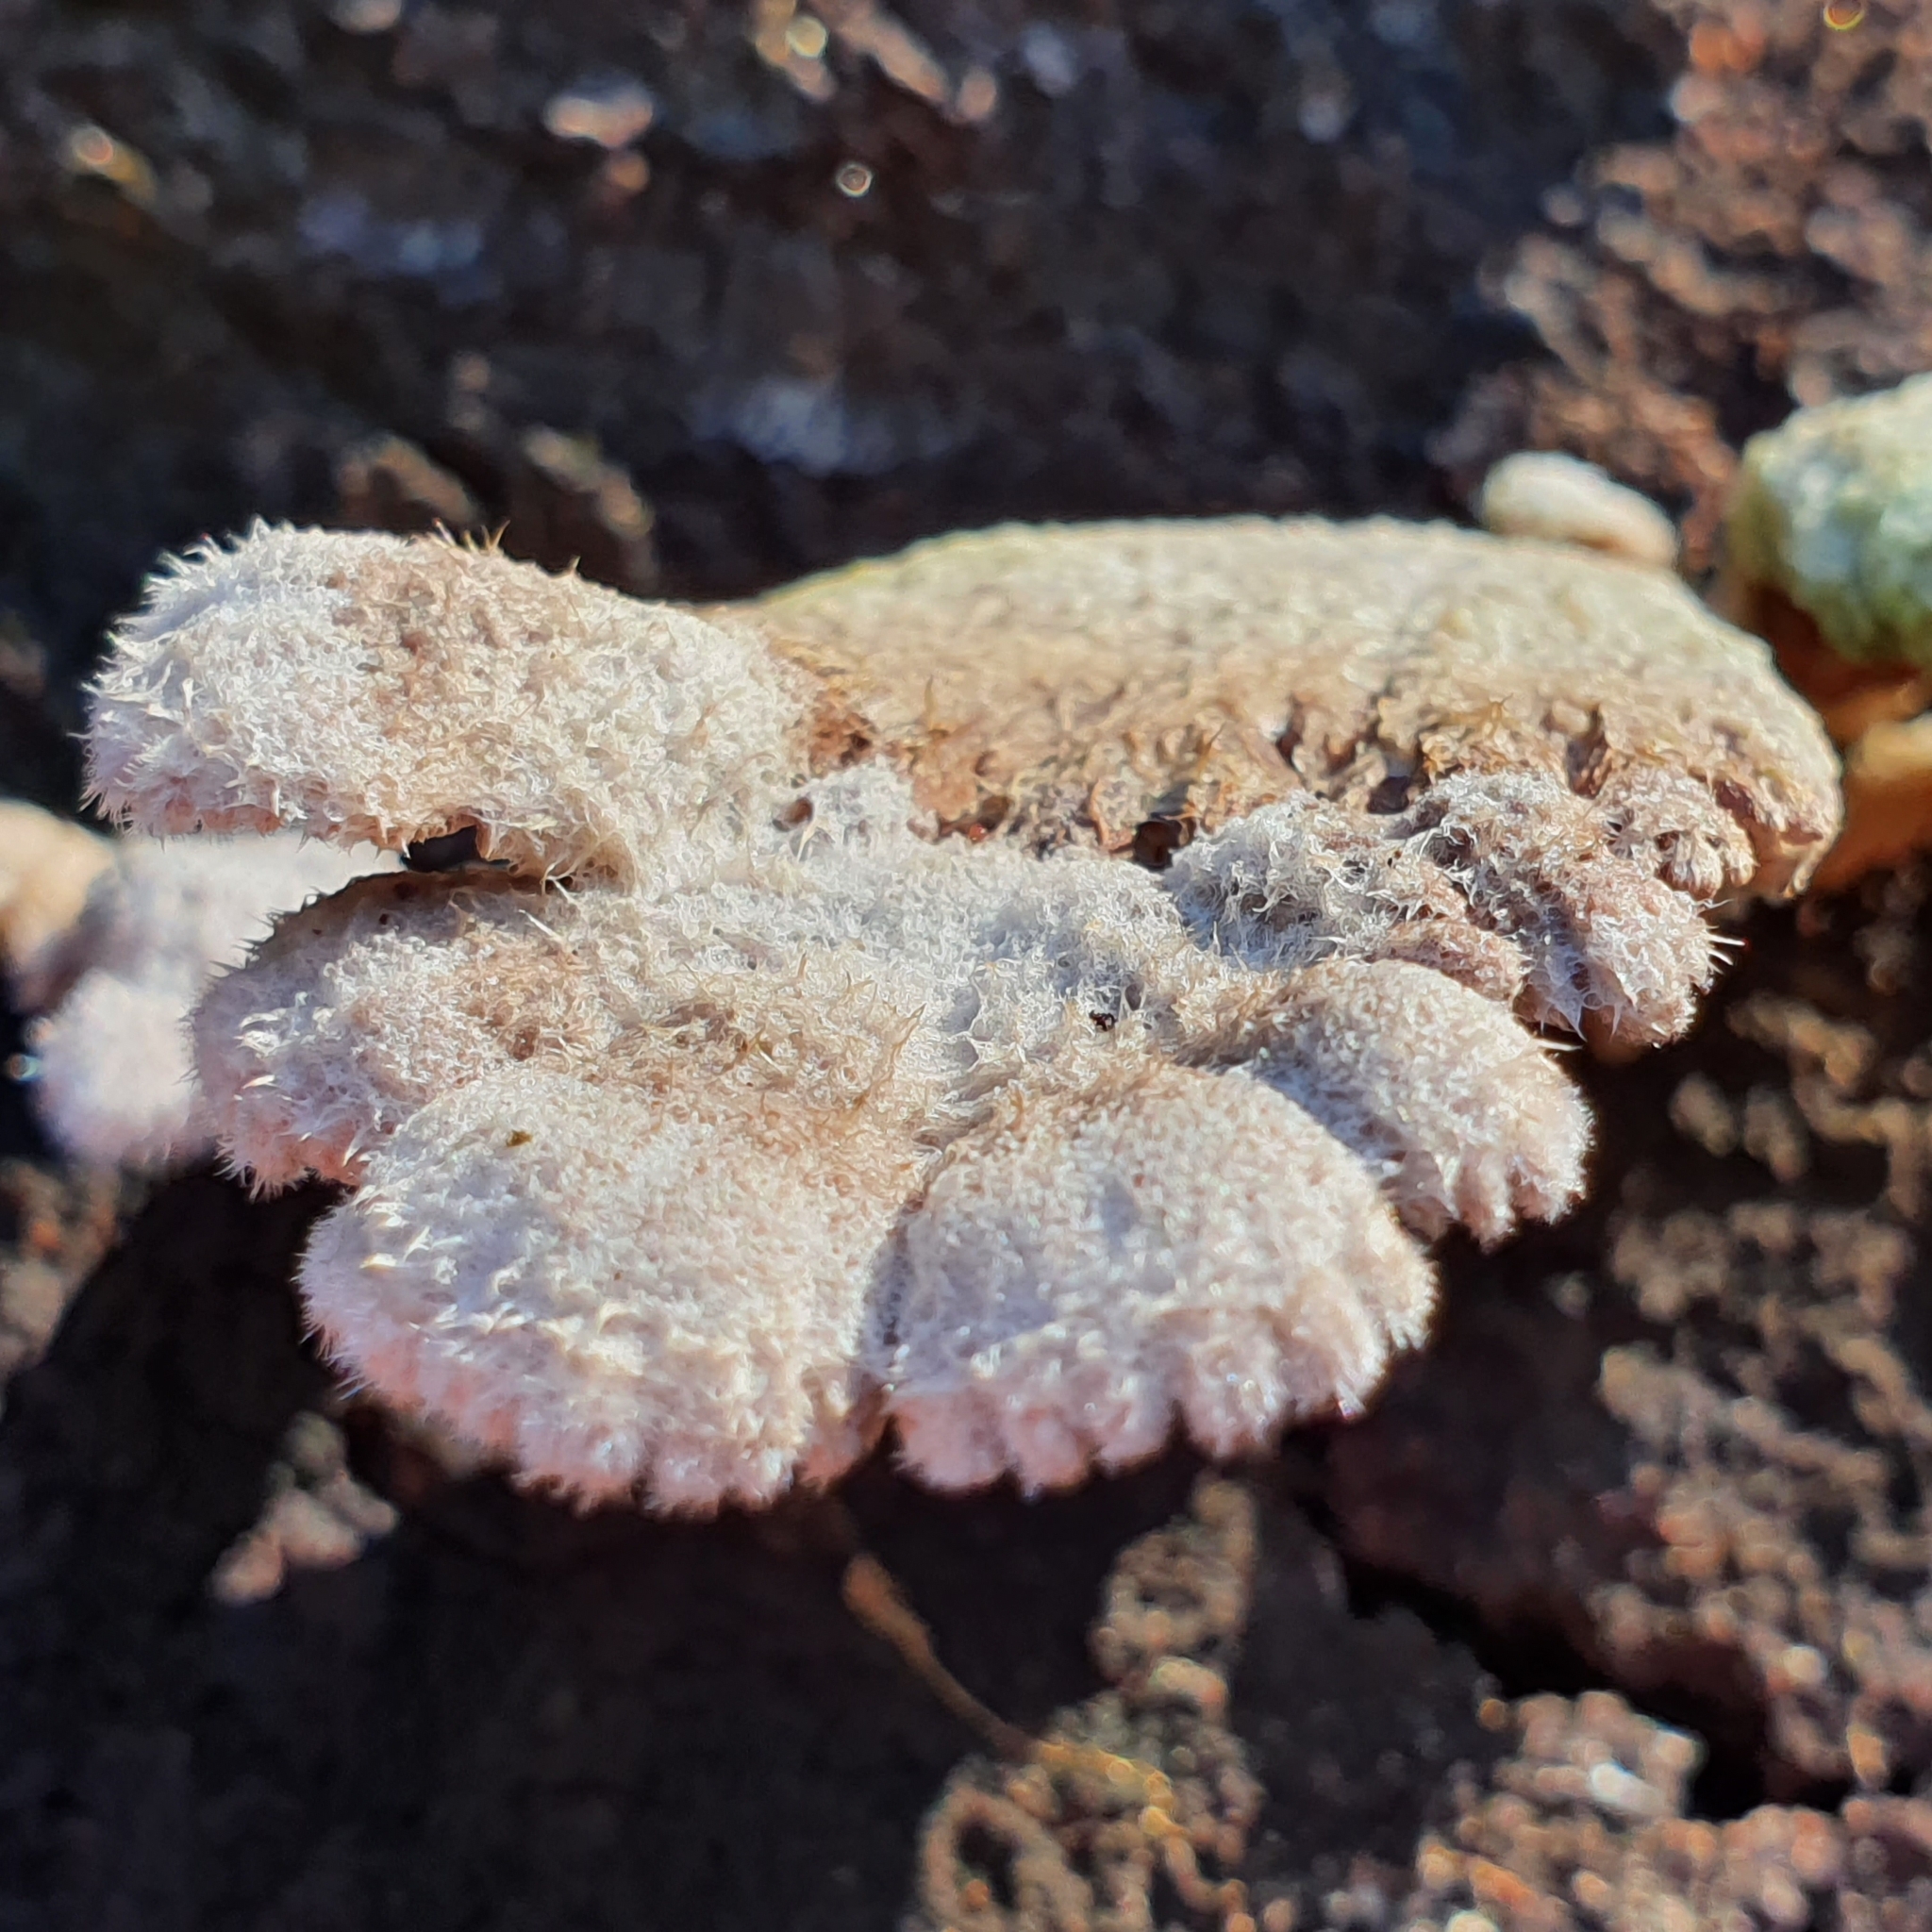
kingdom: Fungi
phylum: Basidiomycota
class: Agaricomycetes
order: Agaricales
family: Schizophyllaceae
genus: Schizophyllum
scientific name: Schizophyllum commune
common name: Common porecrust
